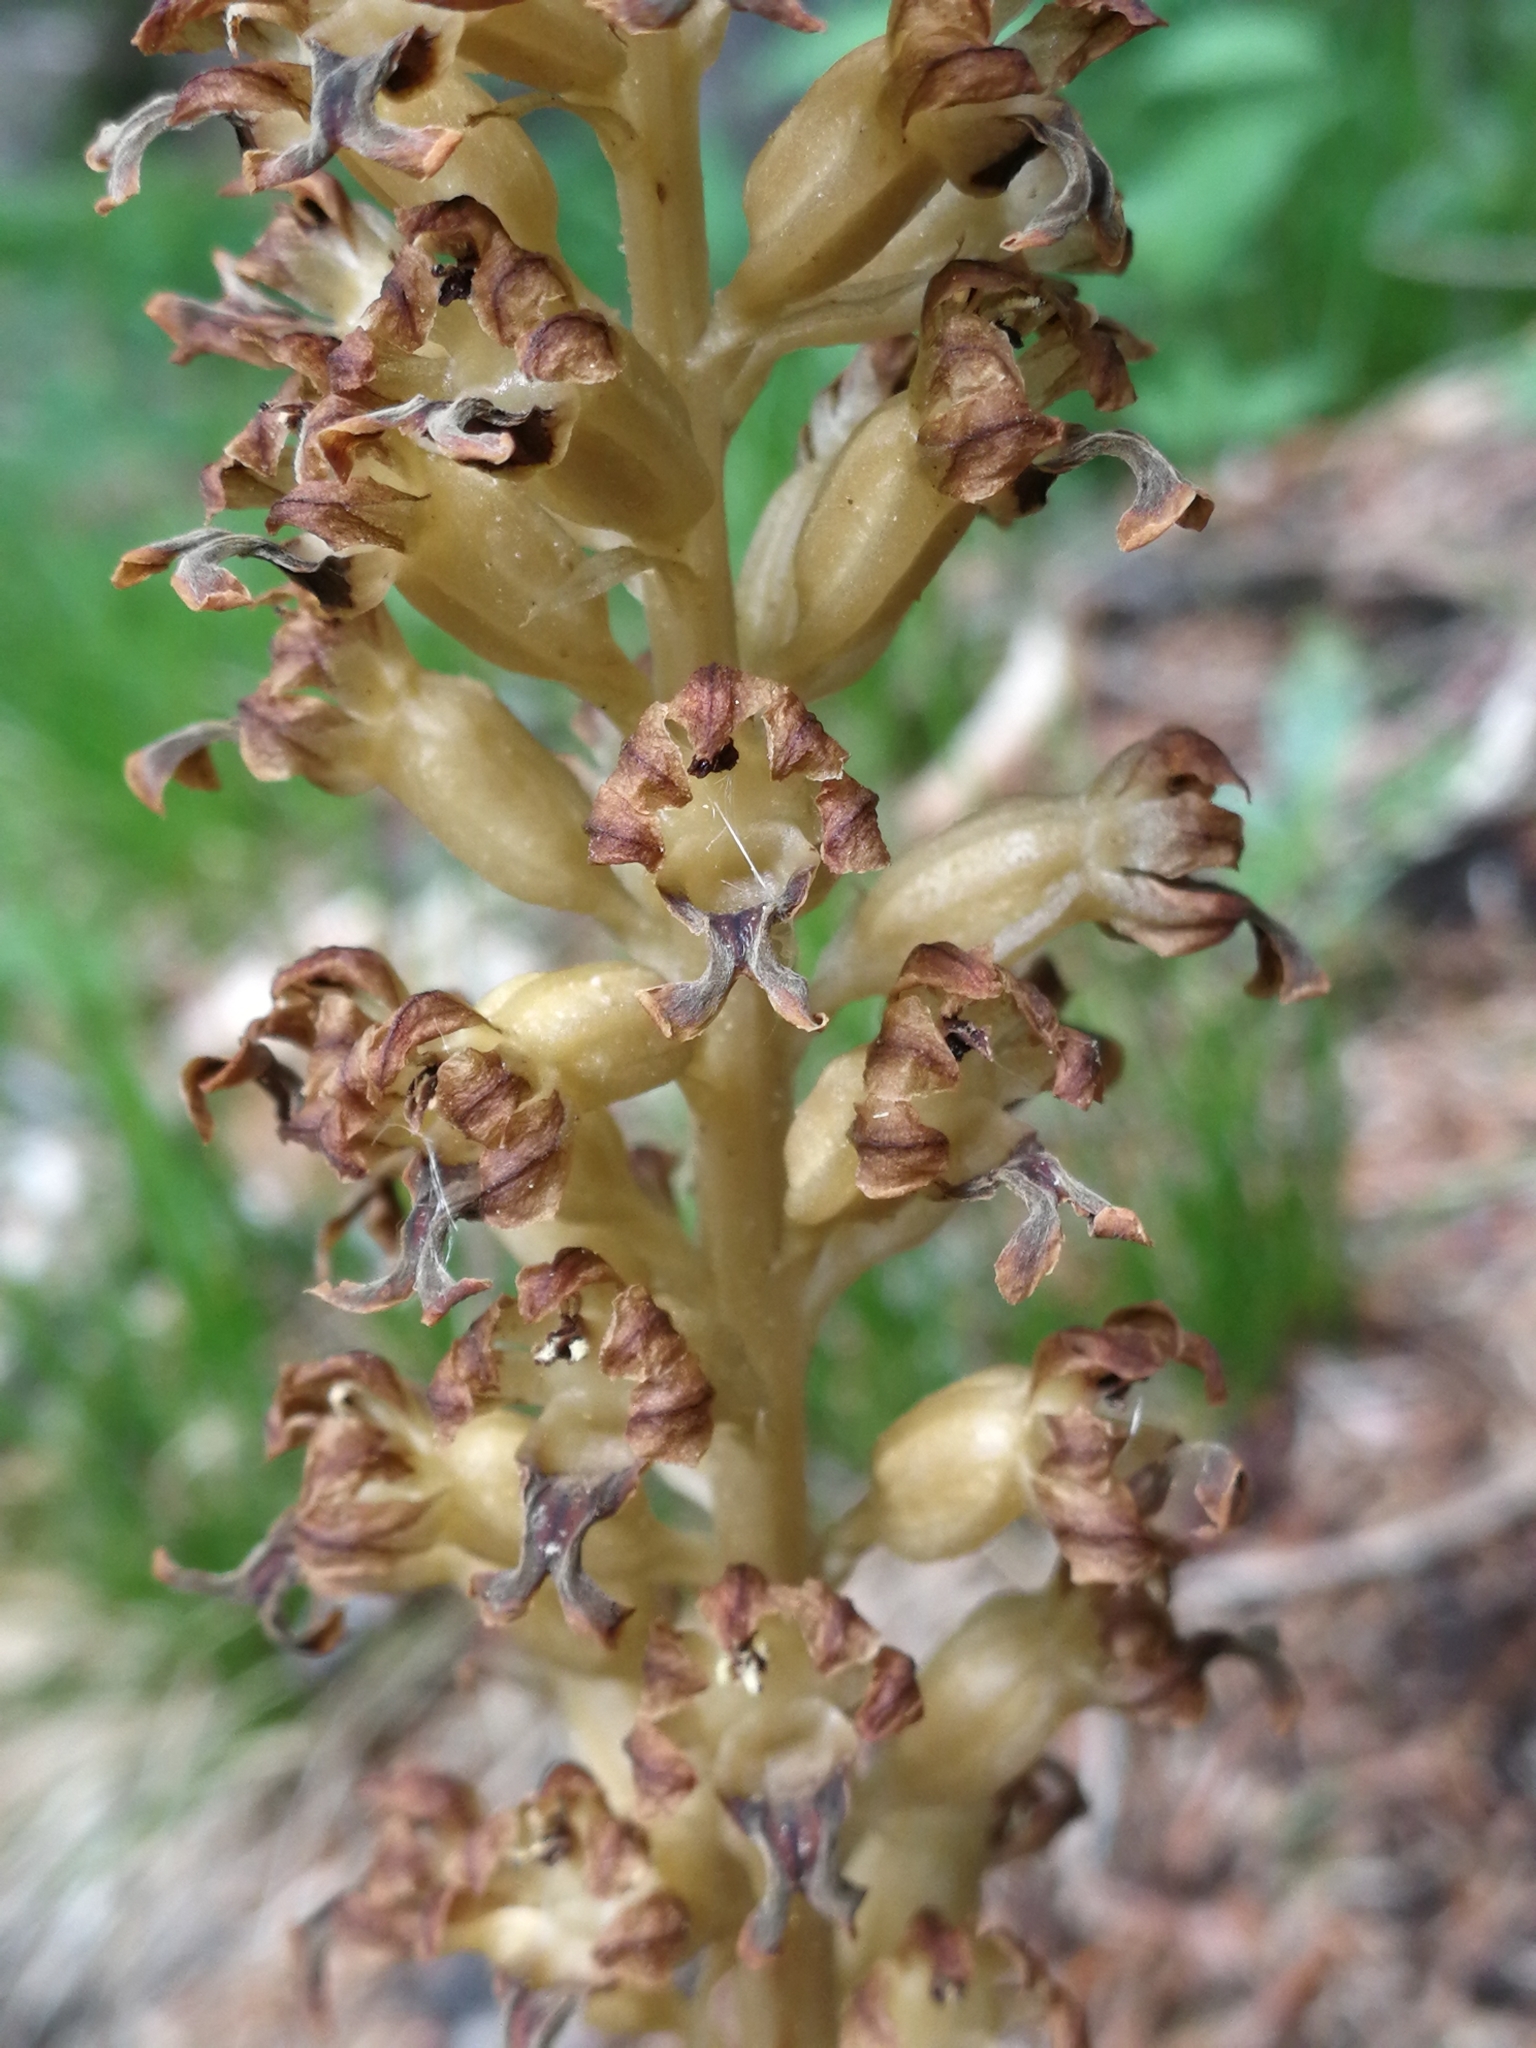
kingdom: Plantae
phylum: Tracheophyta
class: Liliopsida
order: Asparagales
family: Orchidaceae
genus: Neottia
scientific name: Neottia nidus-avis
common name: Bird's-nest orchid
